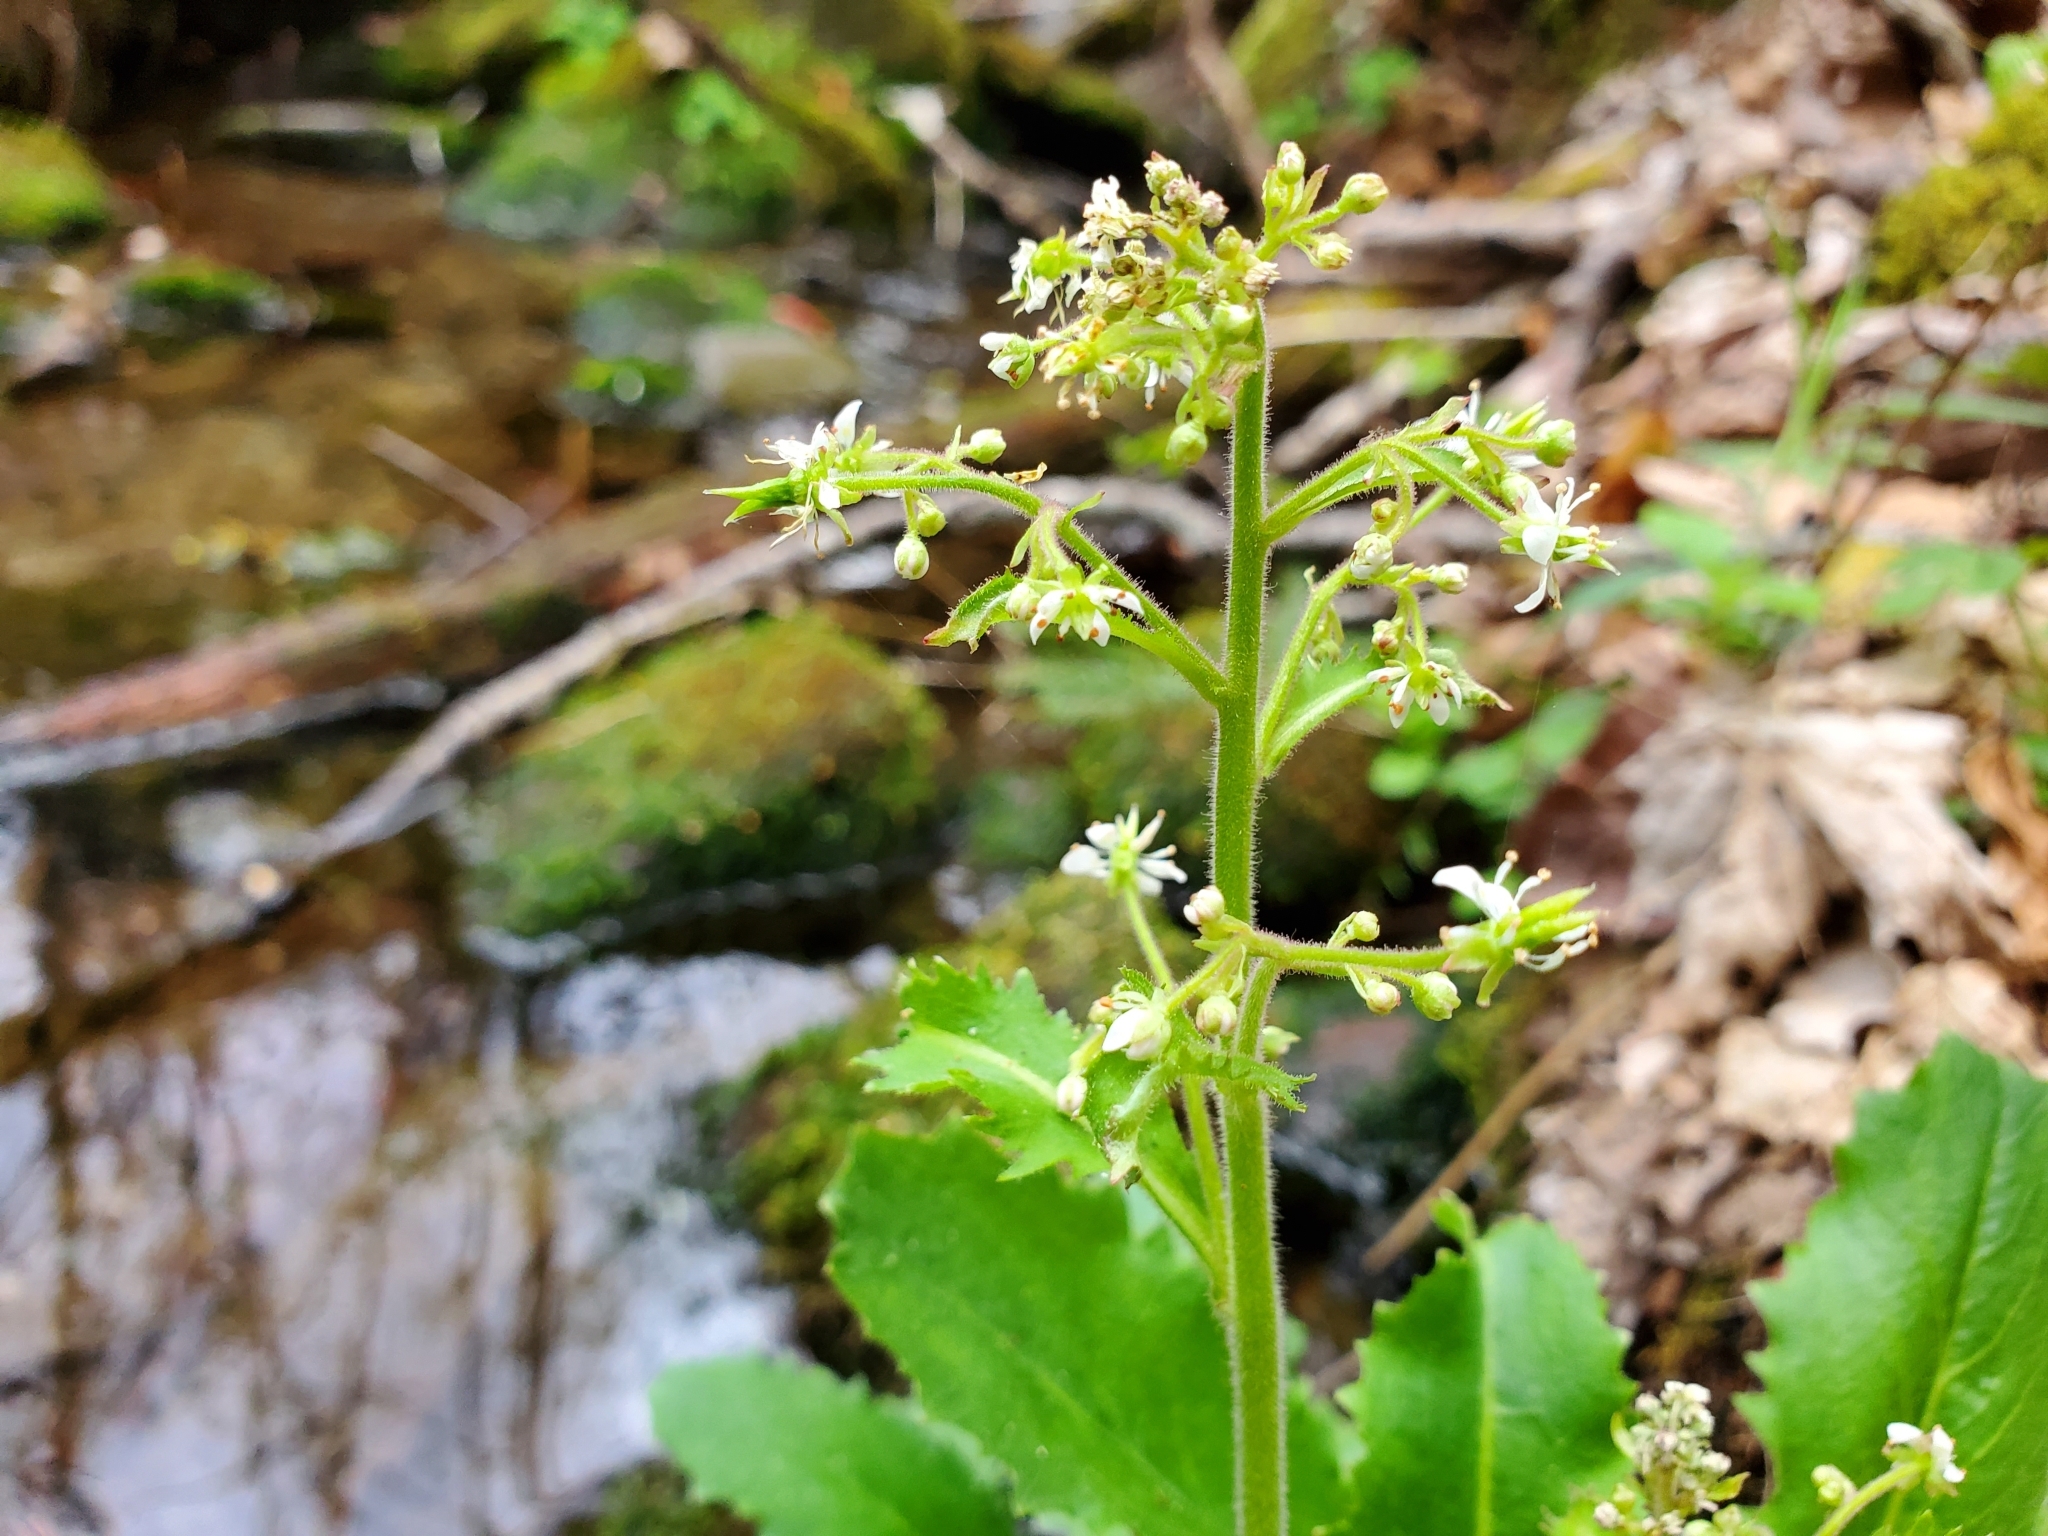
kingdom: Plantae
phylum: Tracheophyta
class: Magnoliopsida
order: Saxifragales
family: Saxifragaceae
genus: Micranthes
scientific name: Micranthes micranthidifolia
